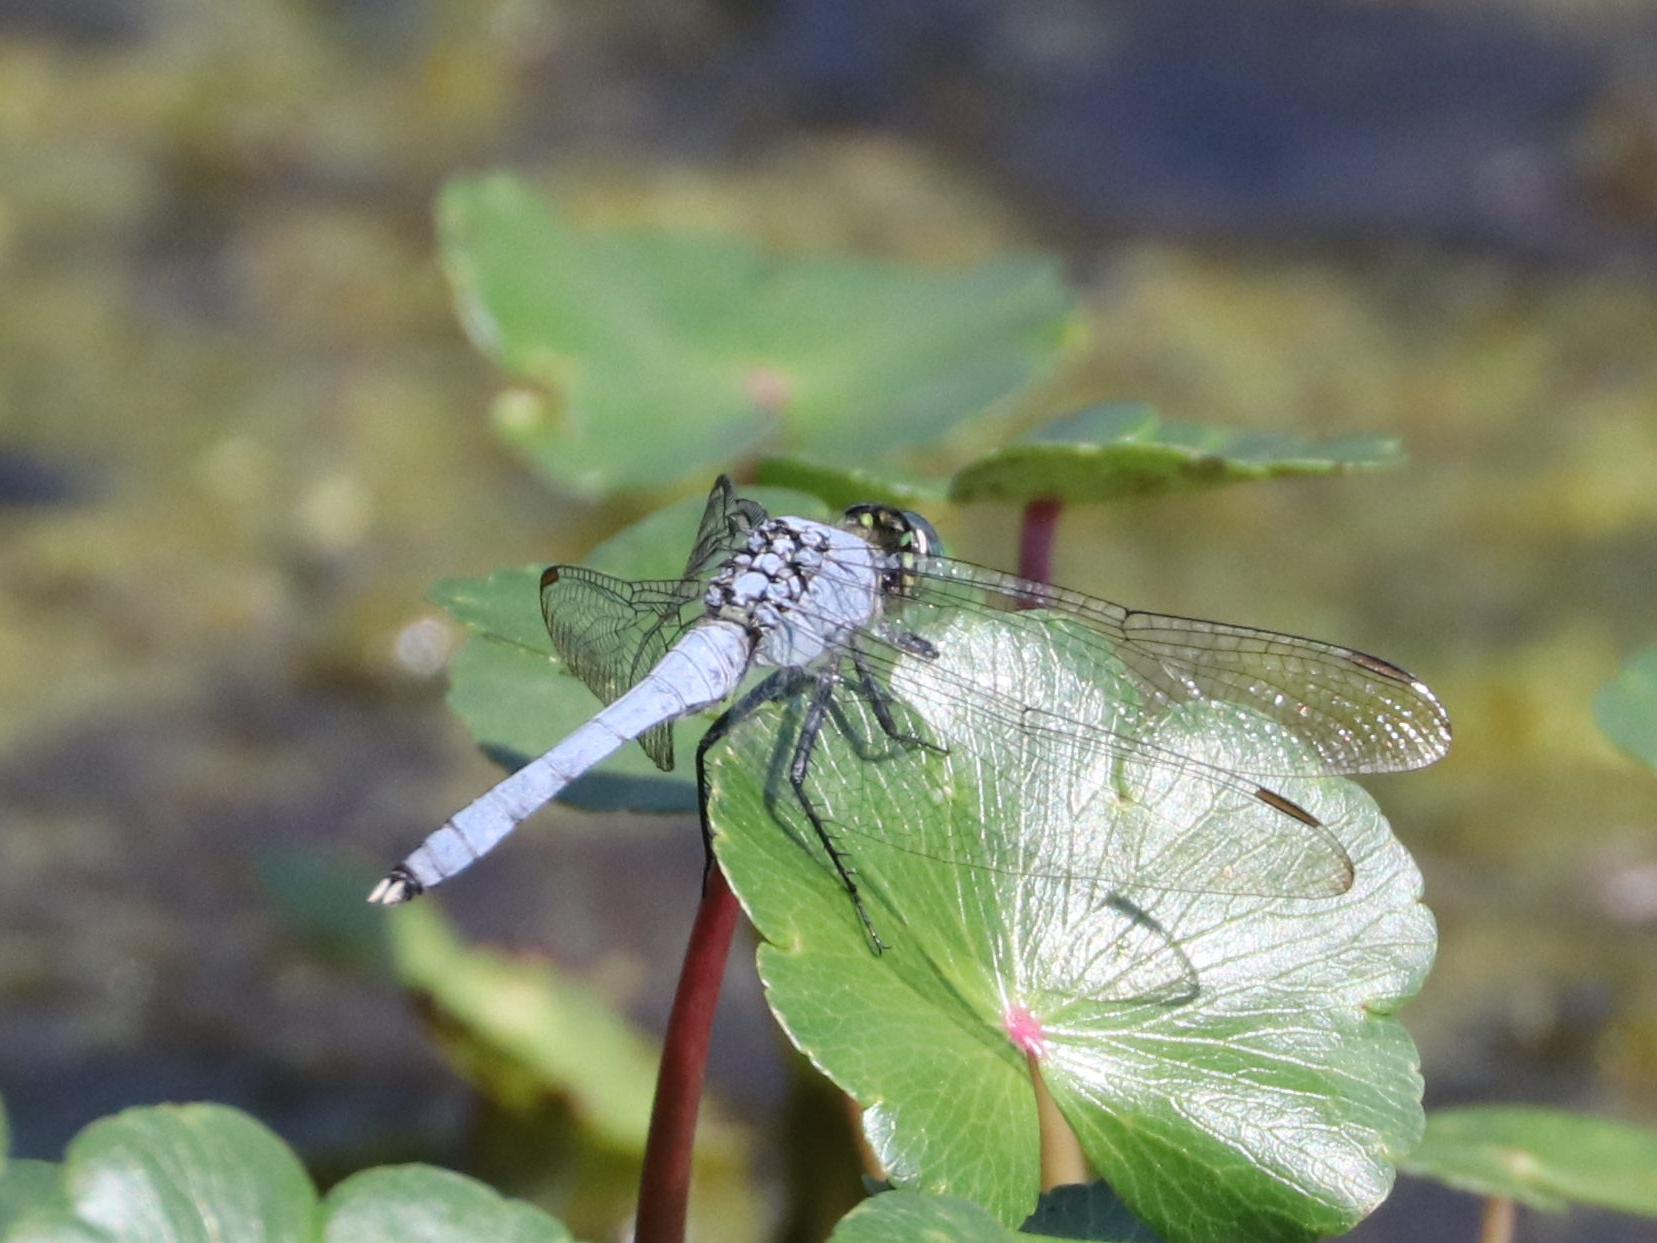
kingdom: Animalia
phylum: Arthropoda
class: Insecta
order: Odonata
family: Libellulidae
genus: Erythemis
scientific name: Erythemis simplicicollis
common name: Eastern pondhawk
